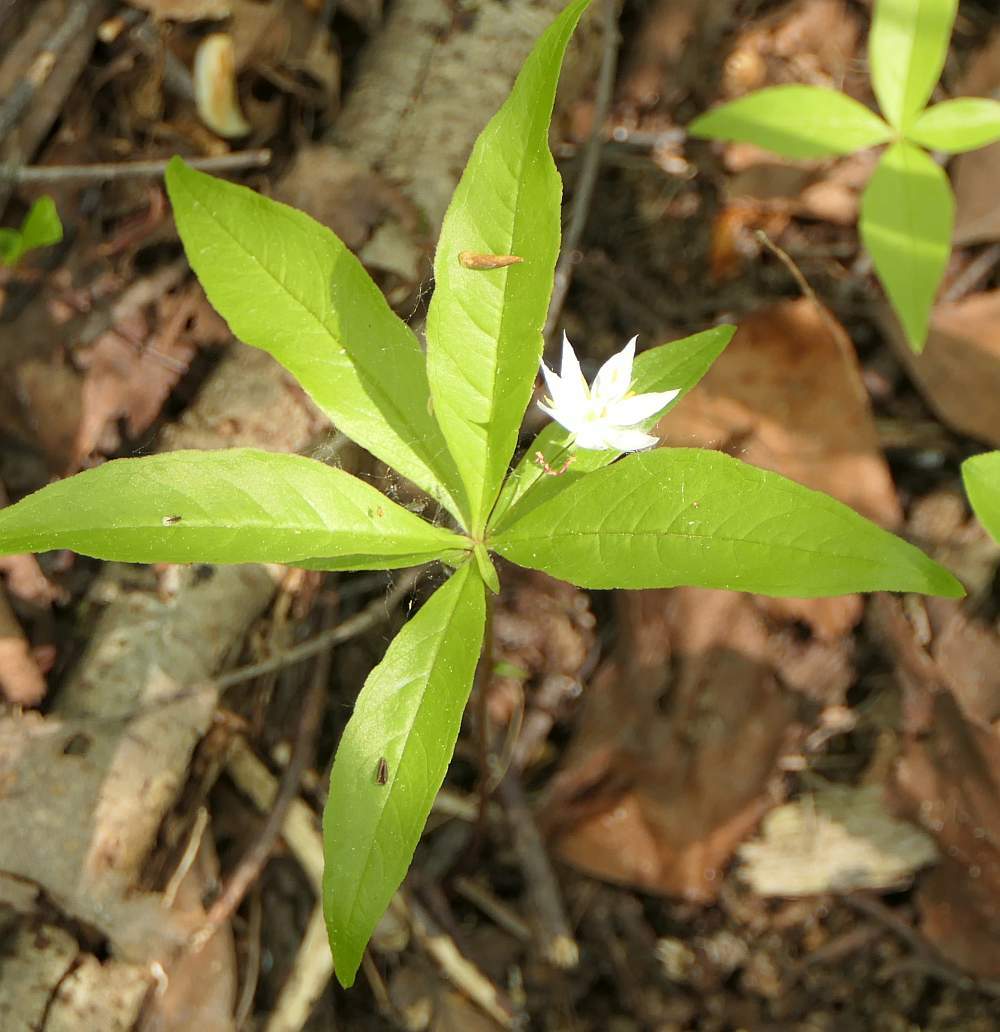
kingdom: Plantae
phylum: Tracheophyta
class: Magnoliopsida
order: Ericales
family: Primulaceae
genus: Lysimachia
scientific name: Lysimachia borealis
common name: American starflower
